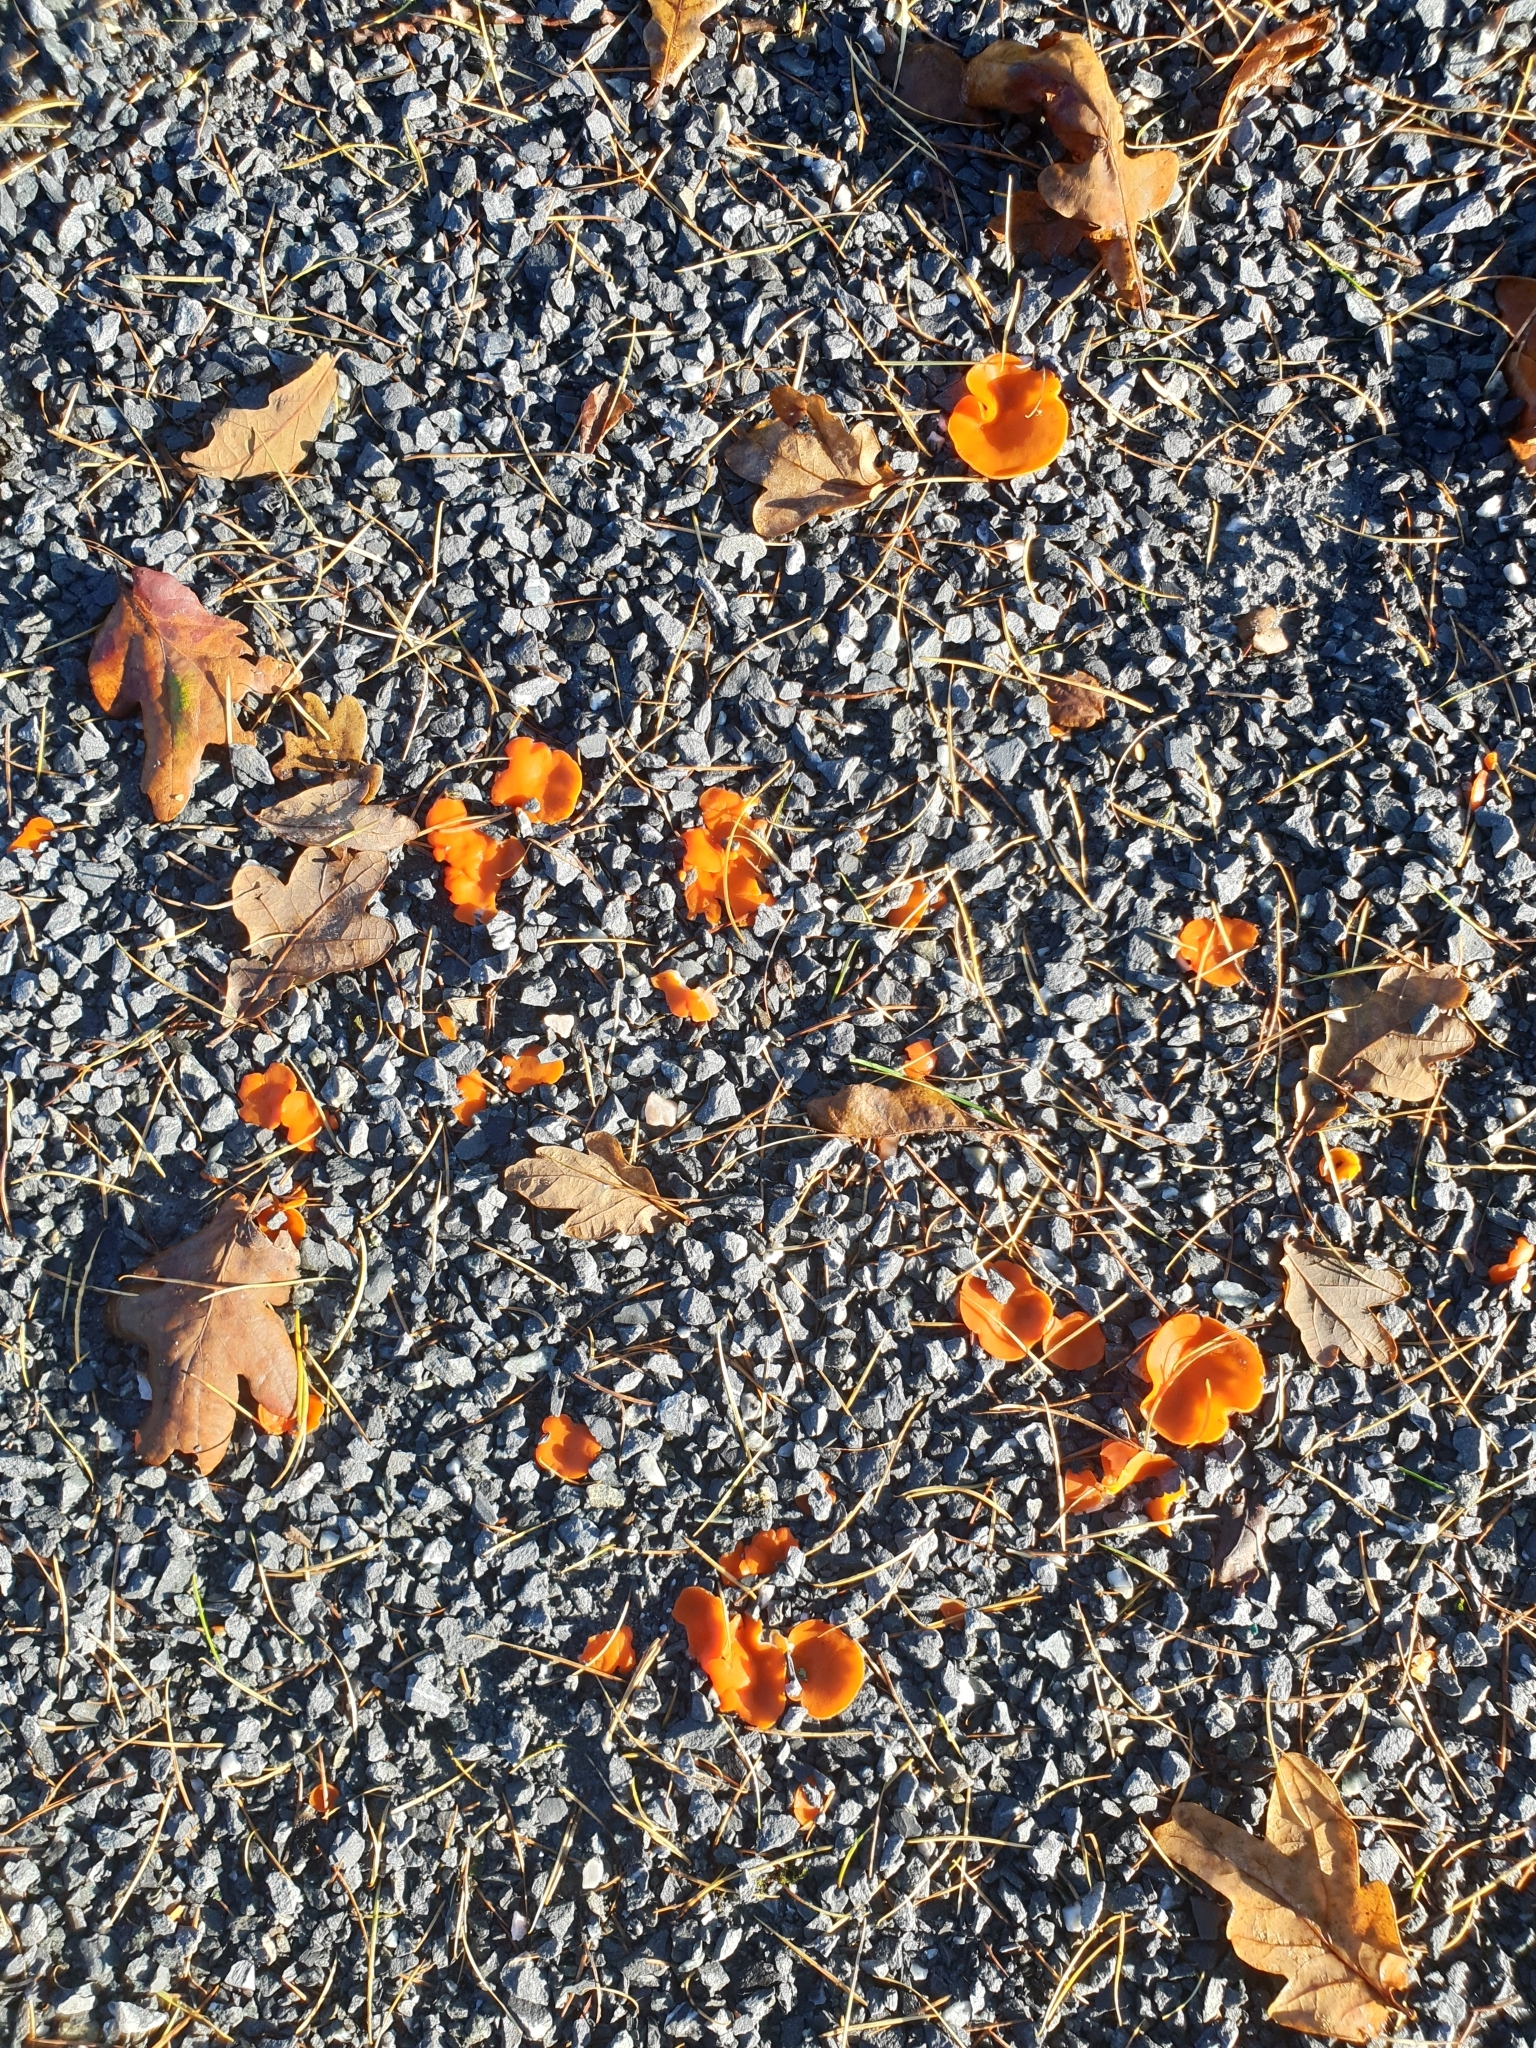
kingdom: Fungi
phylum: Ascomycota
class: Pezizomycetes
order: Pezizales
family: Pyronemataceae
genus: Aleuria
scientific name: Aleuria aurantia
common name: Orange peel fungus
